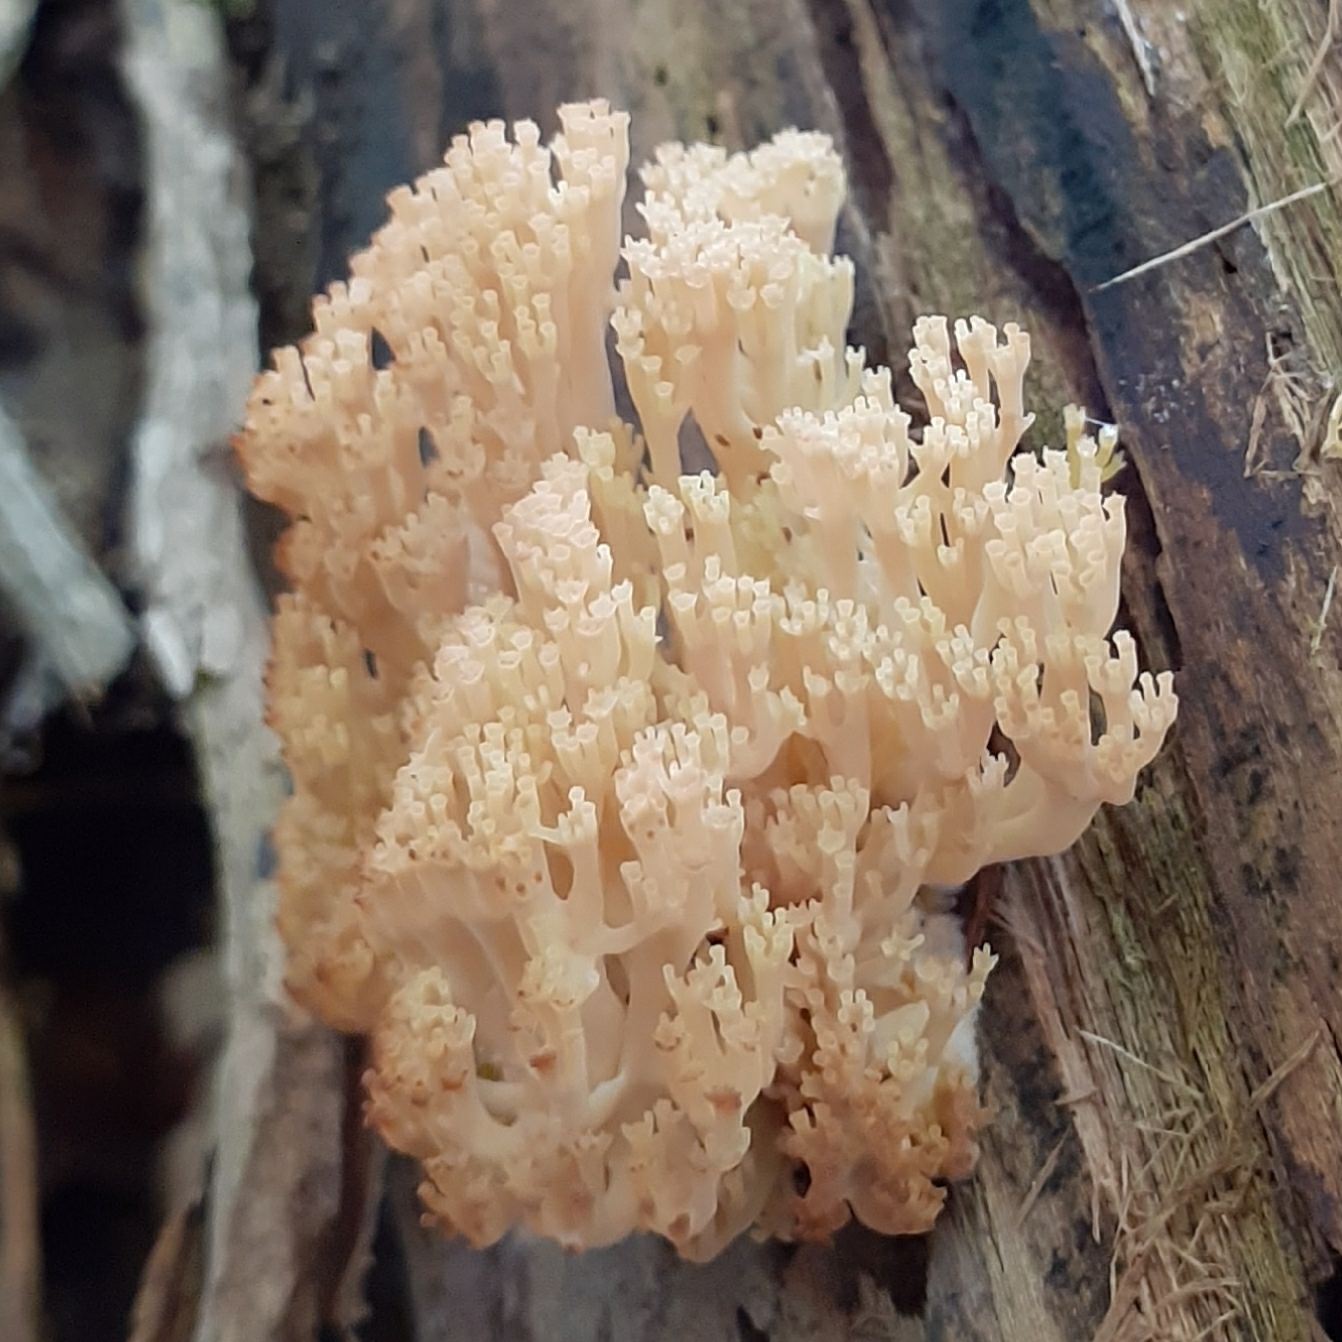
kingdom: Fungi
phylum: Basidiomycota
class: Agaricomycetes
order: Russulales
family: Auriscalpiaceae
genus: Artomyces
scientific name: Artomyces pyxidatus
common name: Crown-tipped coral fungus
